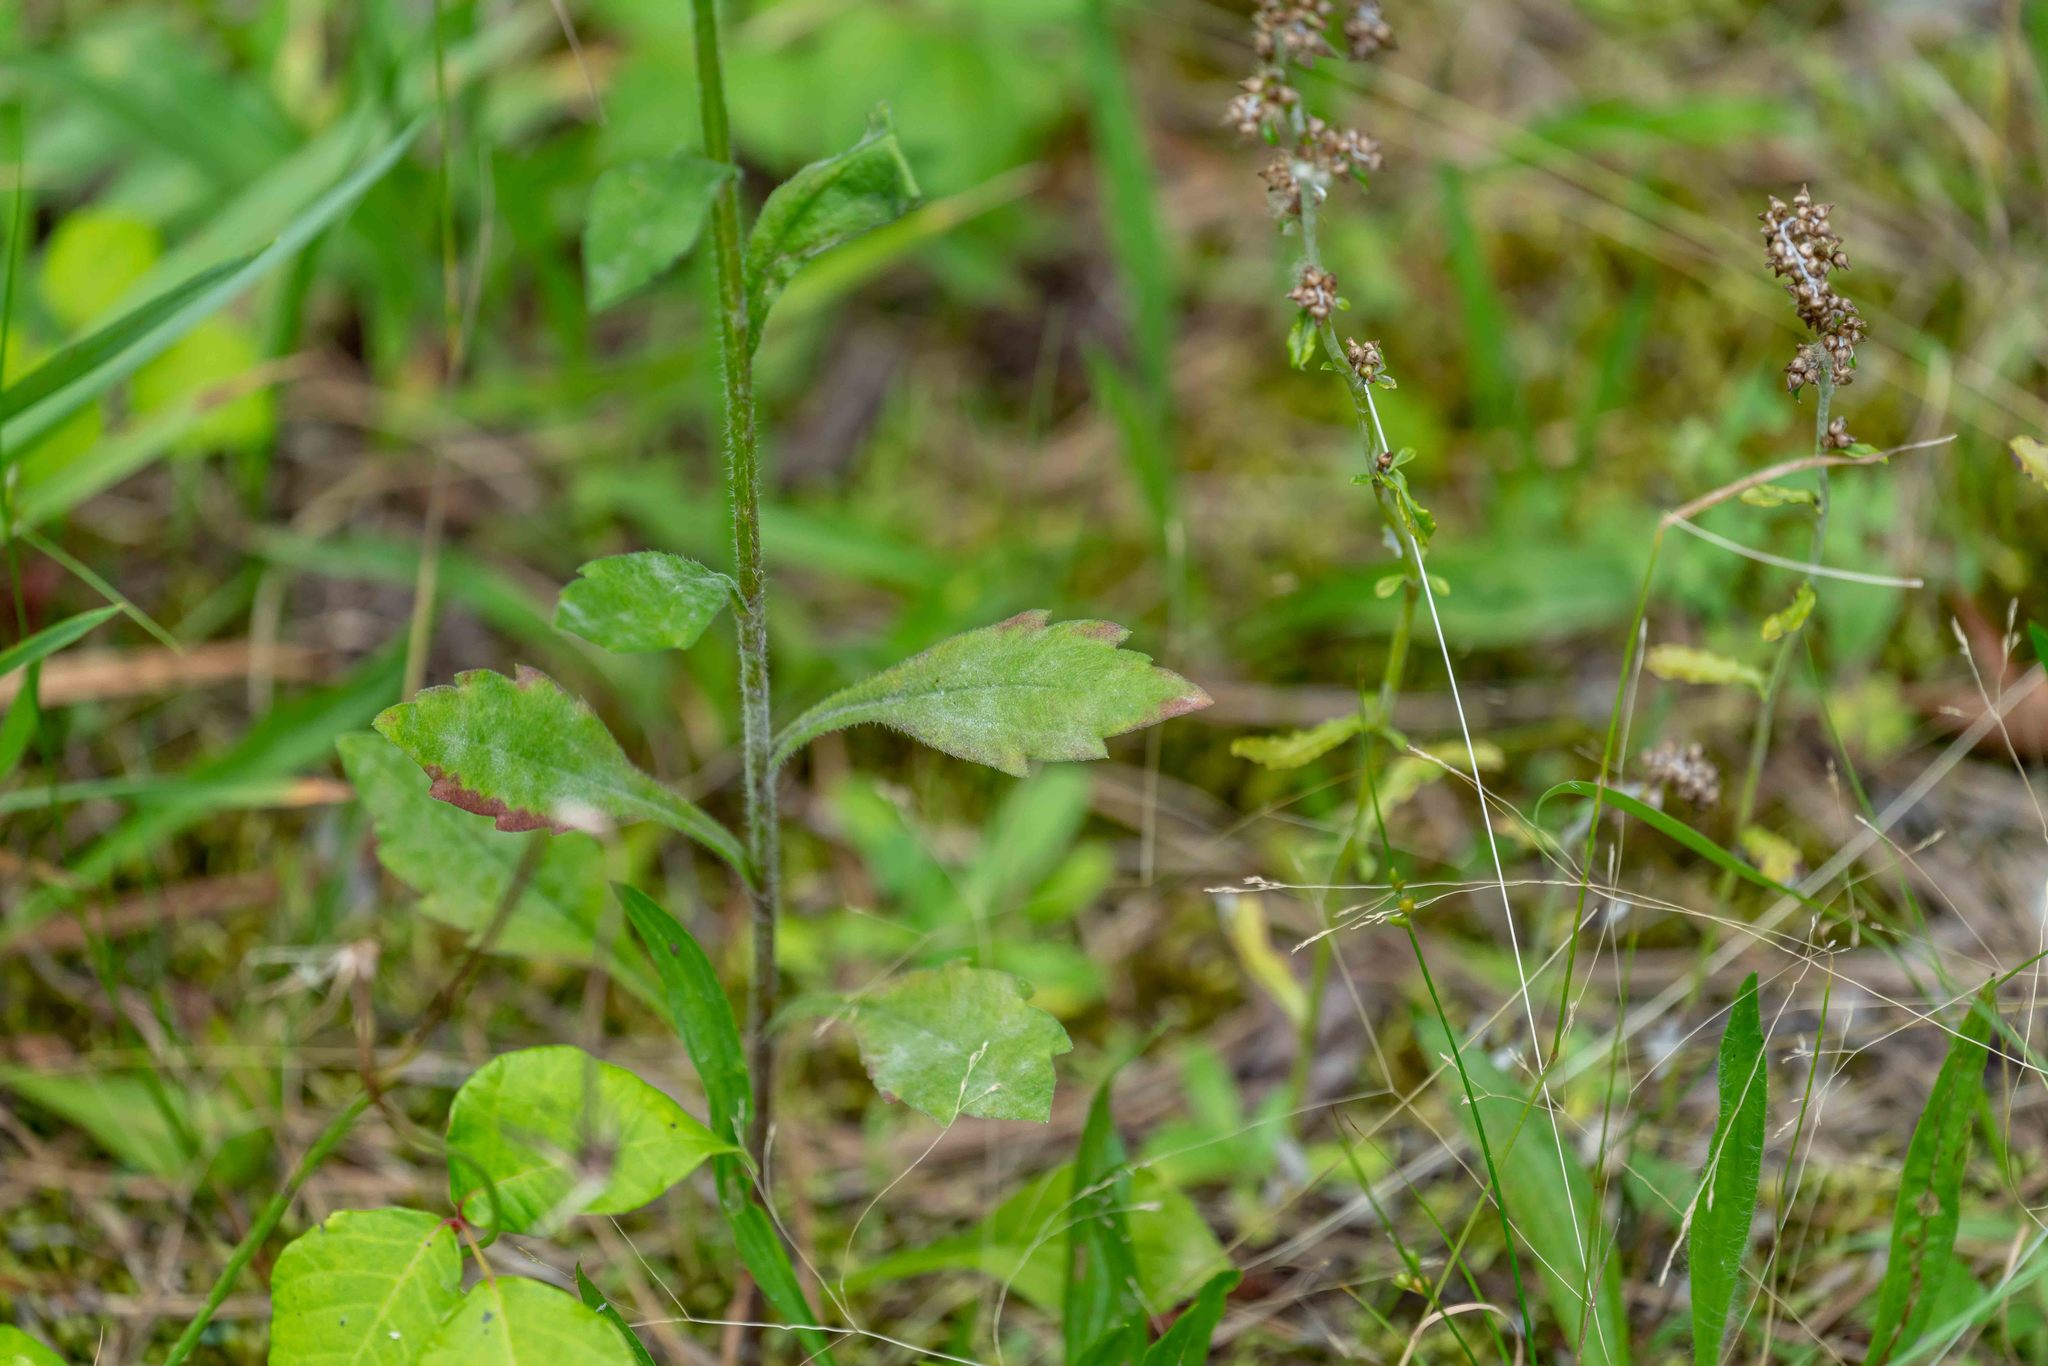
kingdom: Plantae
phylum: Tracheophyta
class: Magnoliopsida
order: Asterales
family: Asteraceae
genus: Erigeron
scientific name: Erigeron annuus
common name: Tall fleabane
